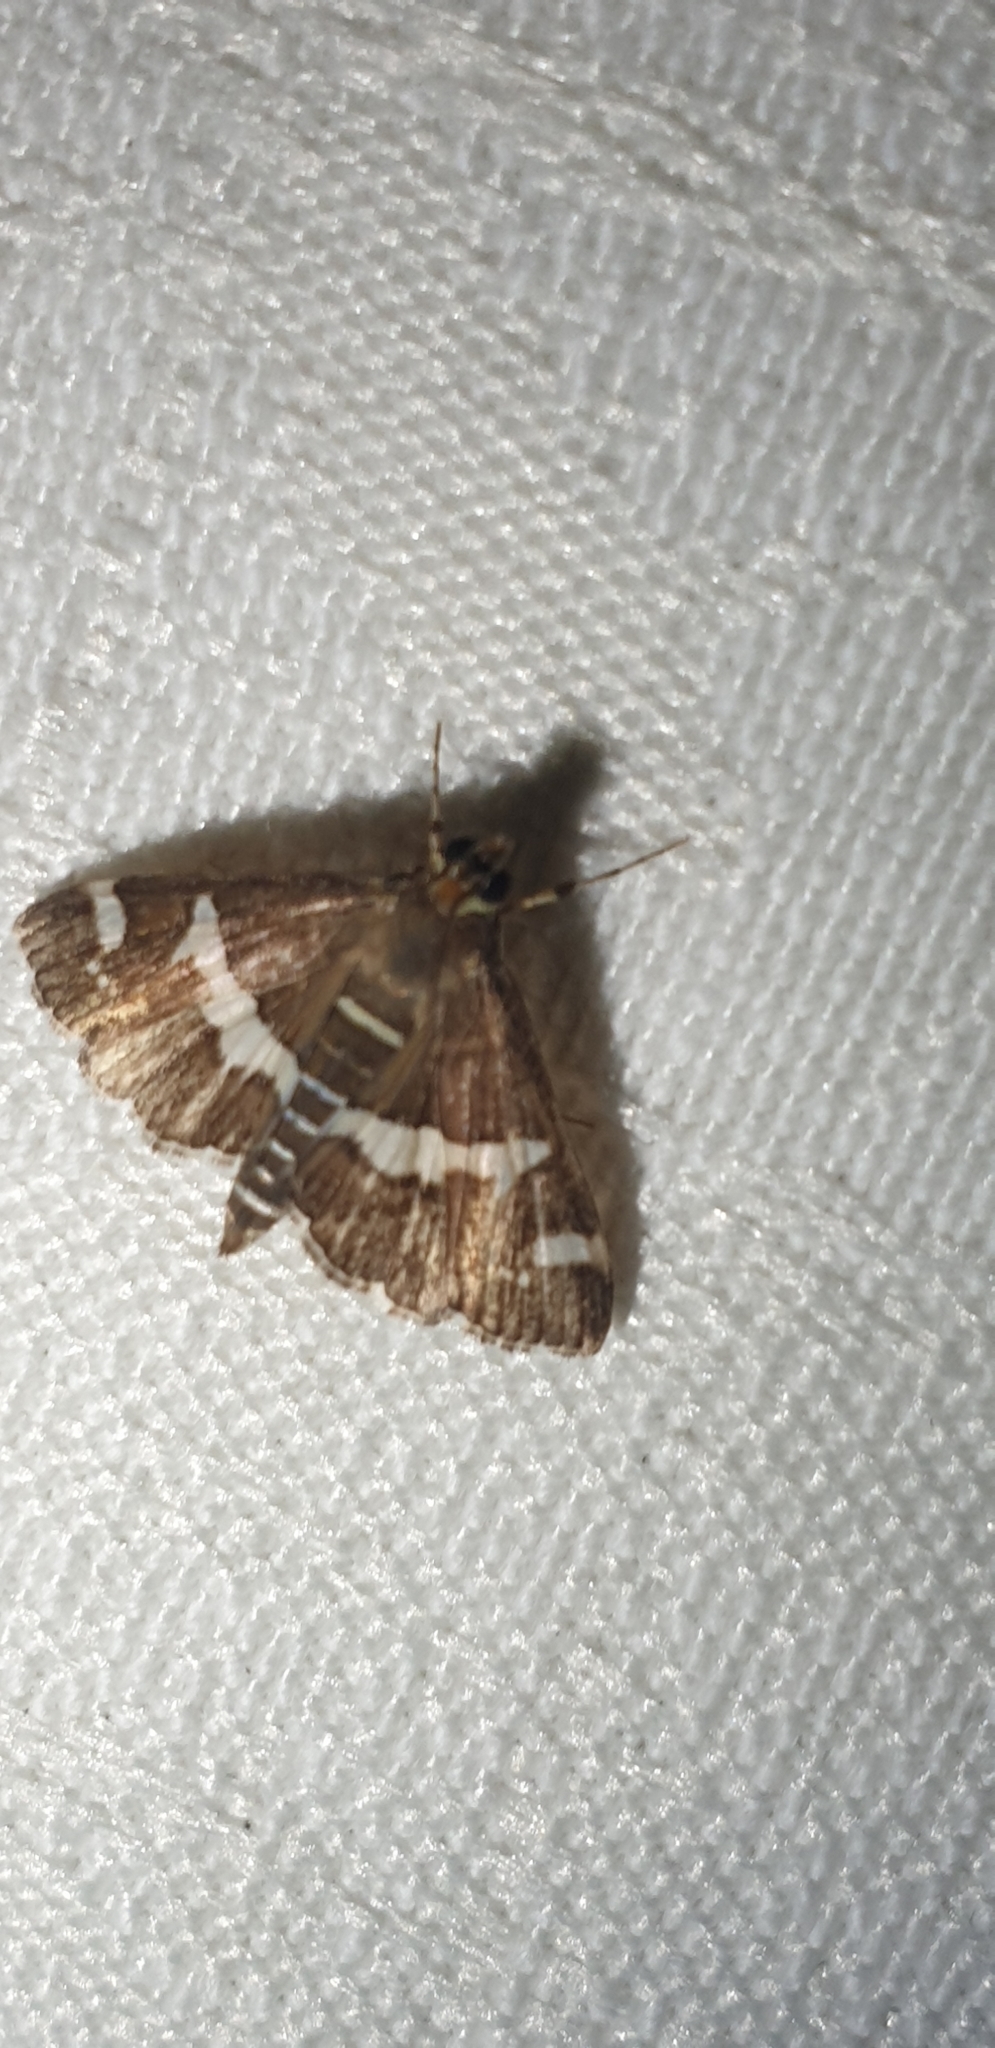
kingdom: Animalia
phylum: Arthropoda
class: Insecta
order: Lepidoptera
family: Crambidae
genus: Spoladea
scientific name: Spoladea recurvalis
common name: Beet webworm moth
